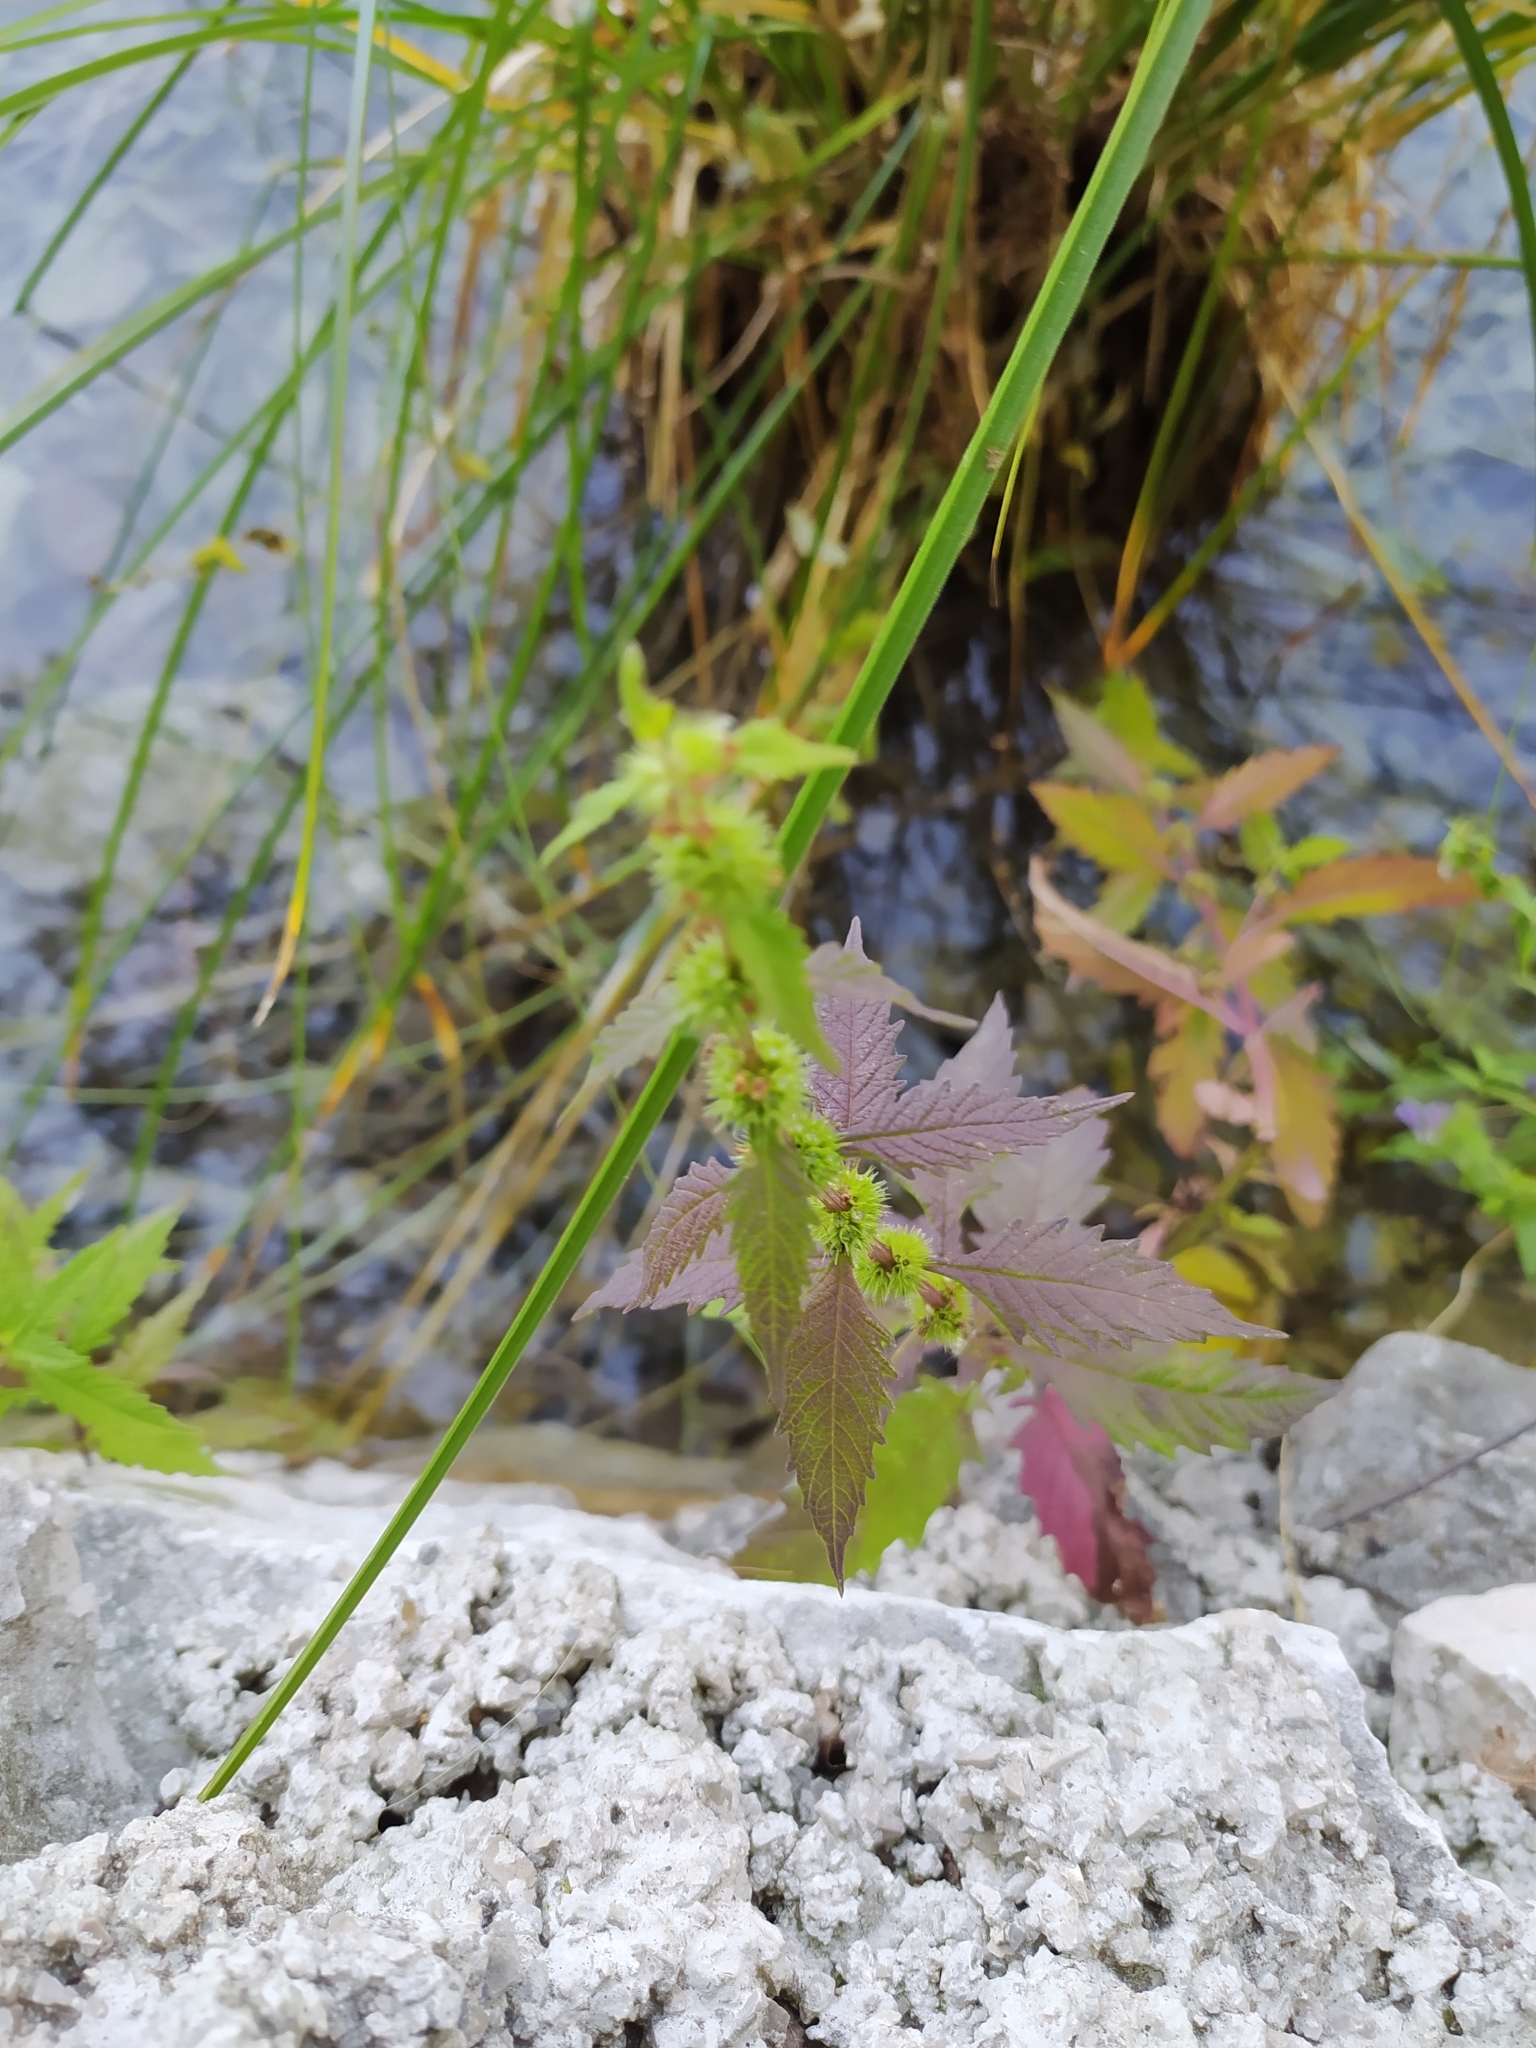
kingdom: Plantae
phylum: Tracheophyta
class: Magnoliopsida
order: Lamiales
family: Lamiaceae
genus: Lycopus
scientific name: Lycopus europaeus
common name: European bugleweed
